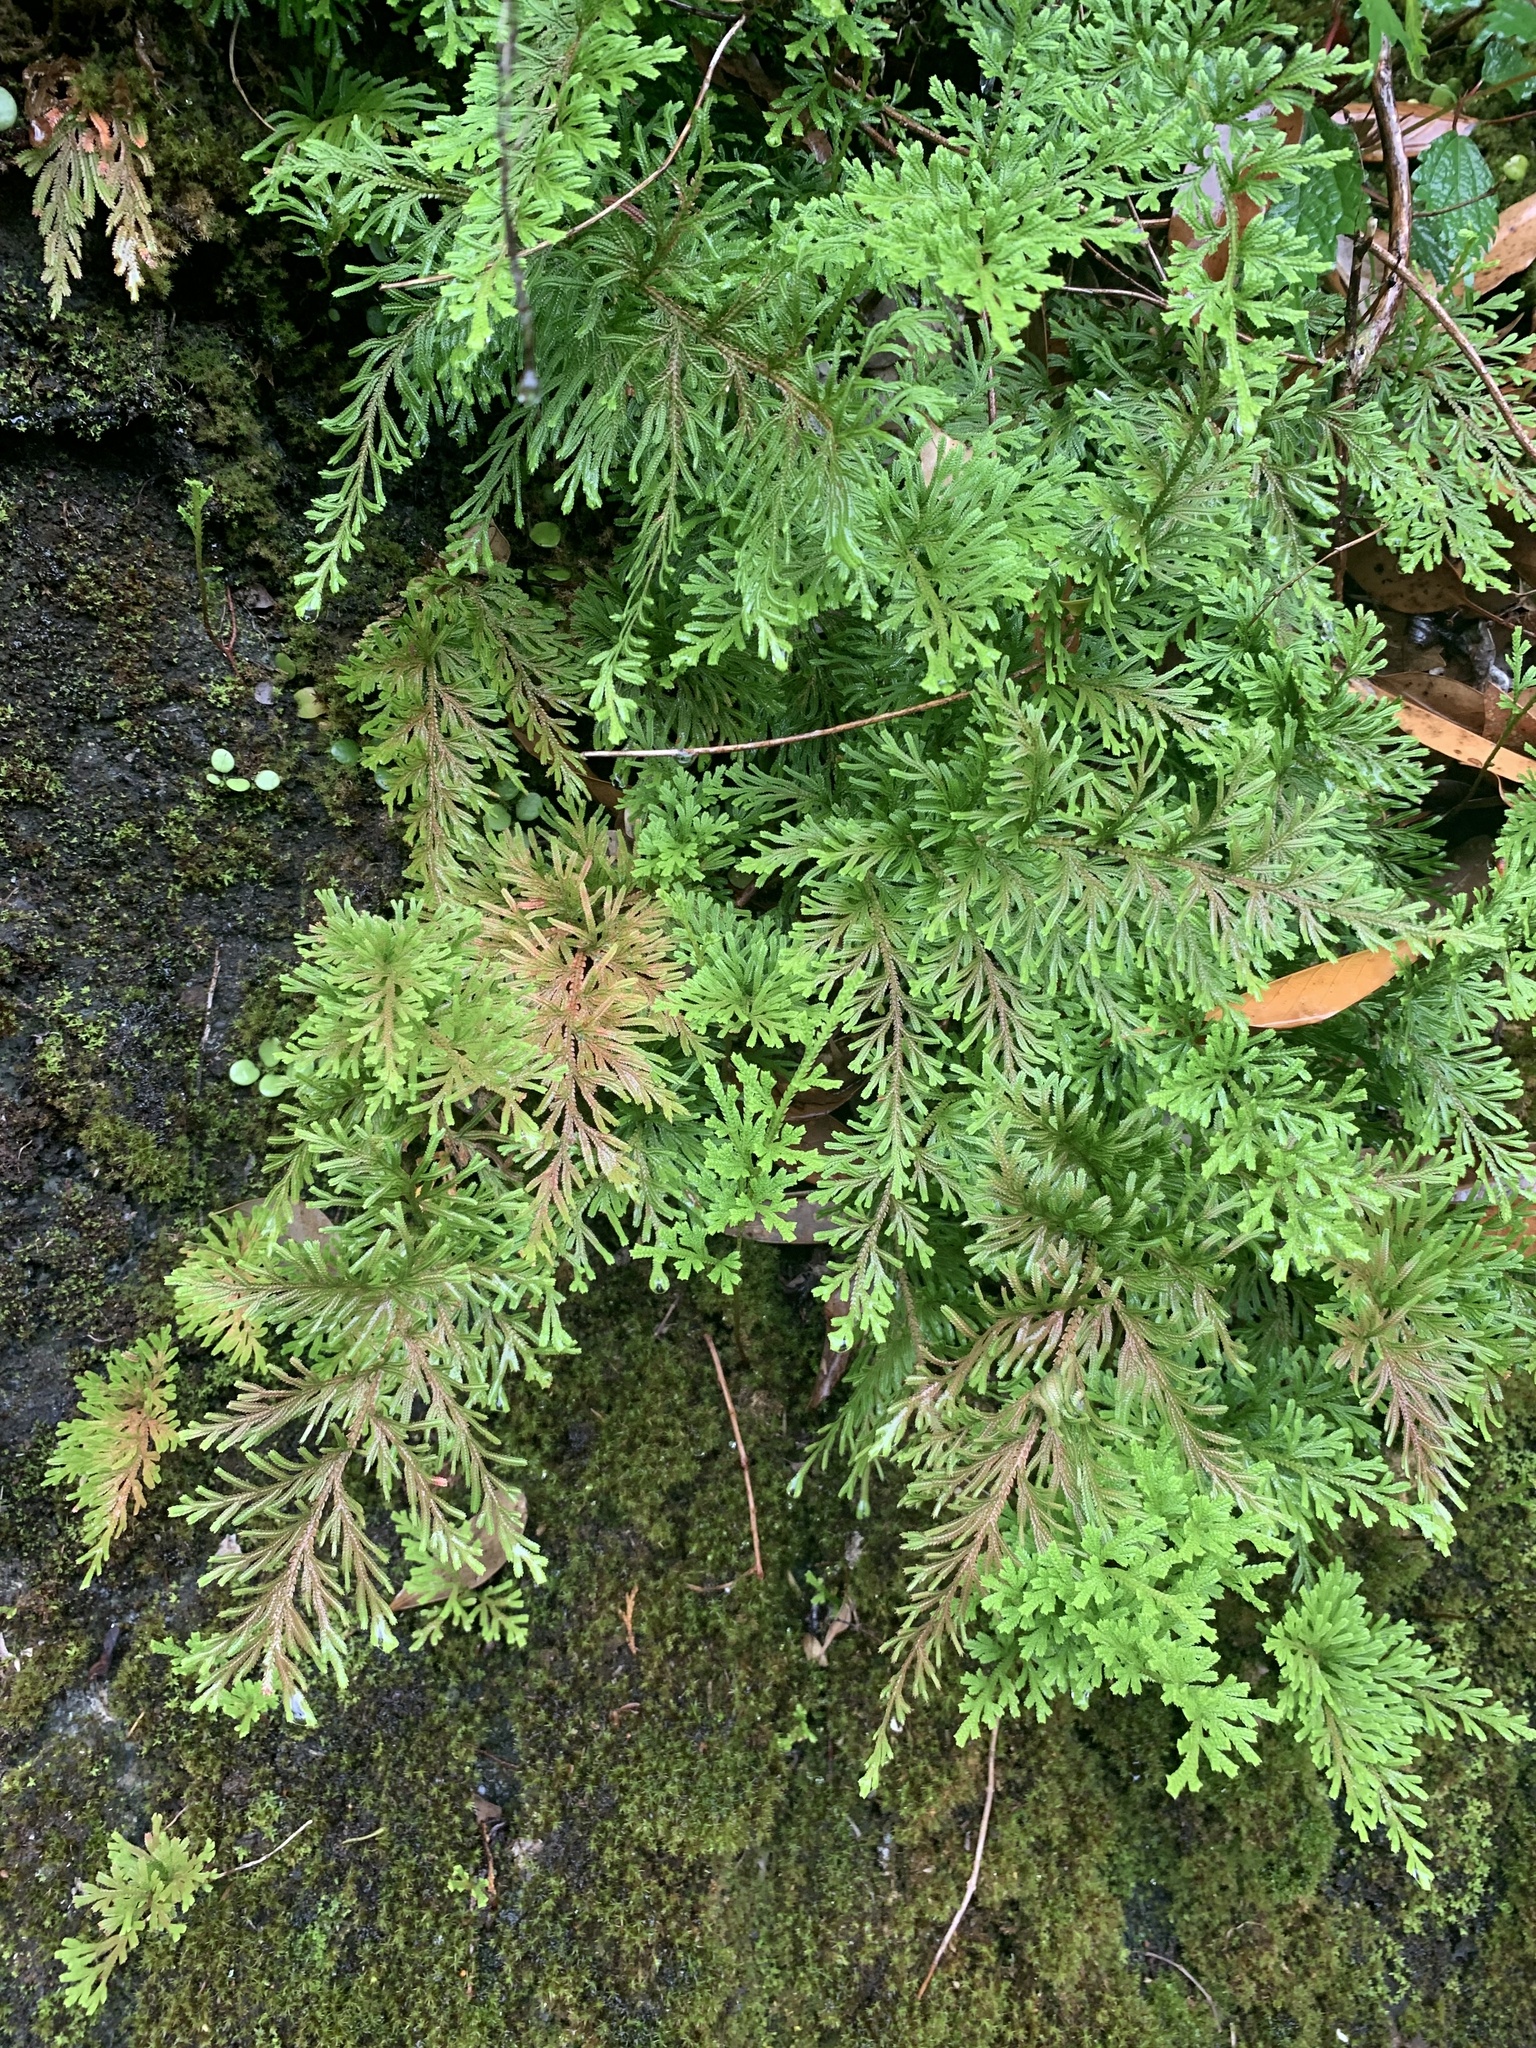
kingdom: Plantae
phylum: Tracheophyta
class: Lycopodiopsida
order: Selaginellales
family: Selaginellaceae
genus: Selaginella
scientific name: Selaginella involvens
